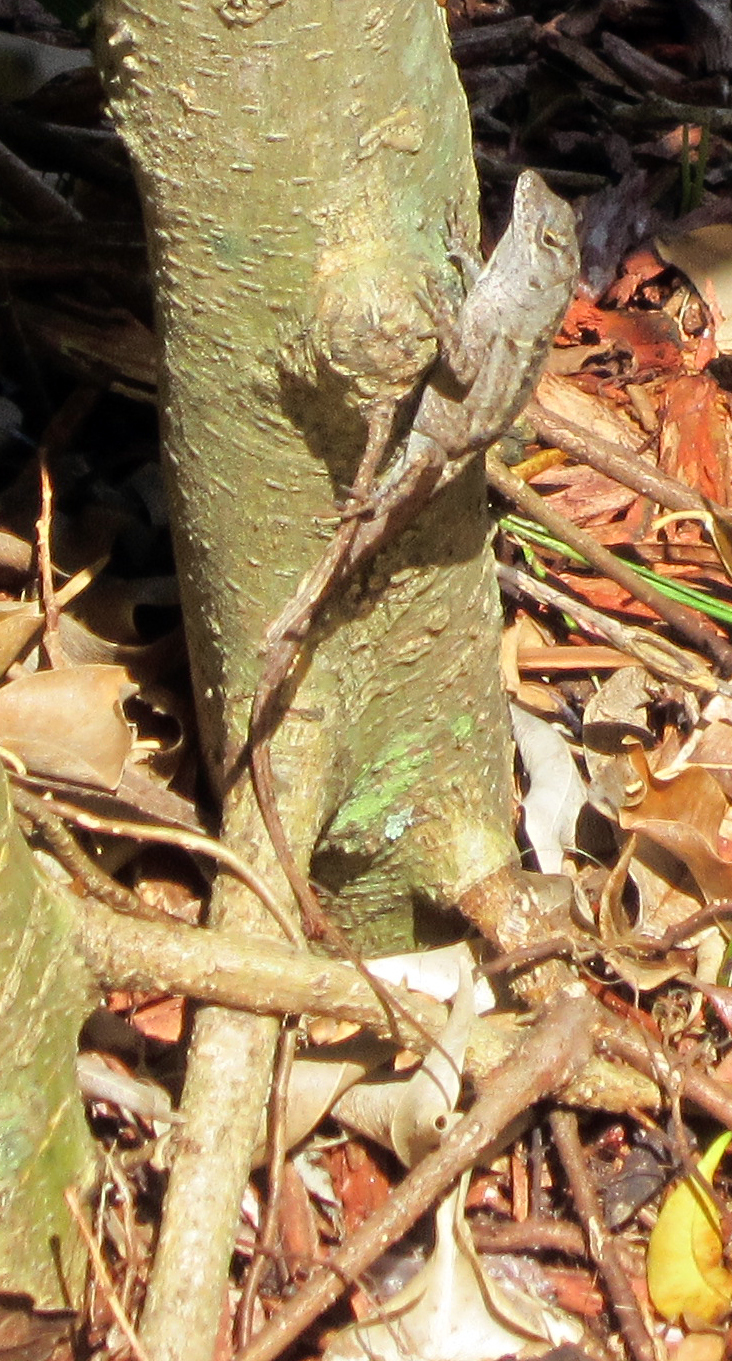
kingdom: Animalia
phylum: Chordata
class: Squamata
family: Dactyloidae
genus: Anolis
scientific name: Anolis sagrei
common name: Brown anole
